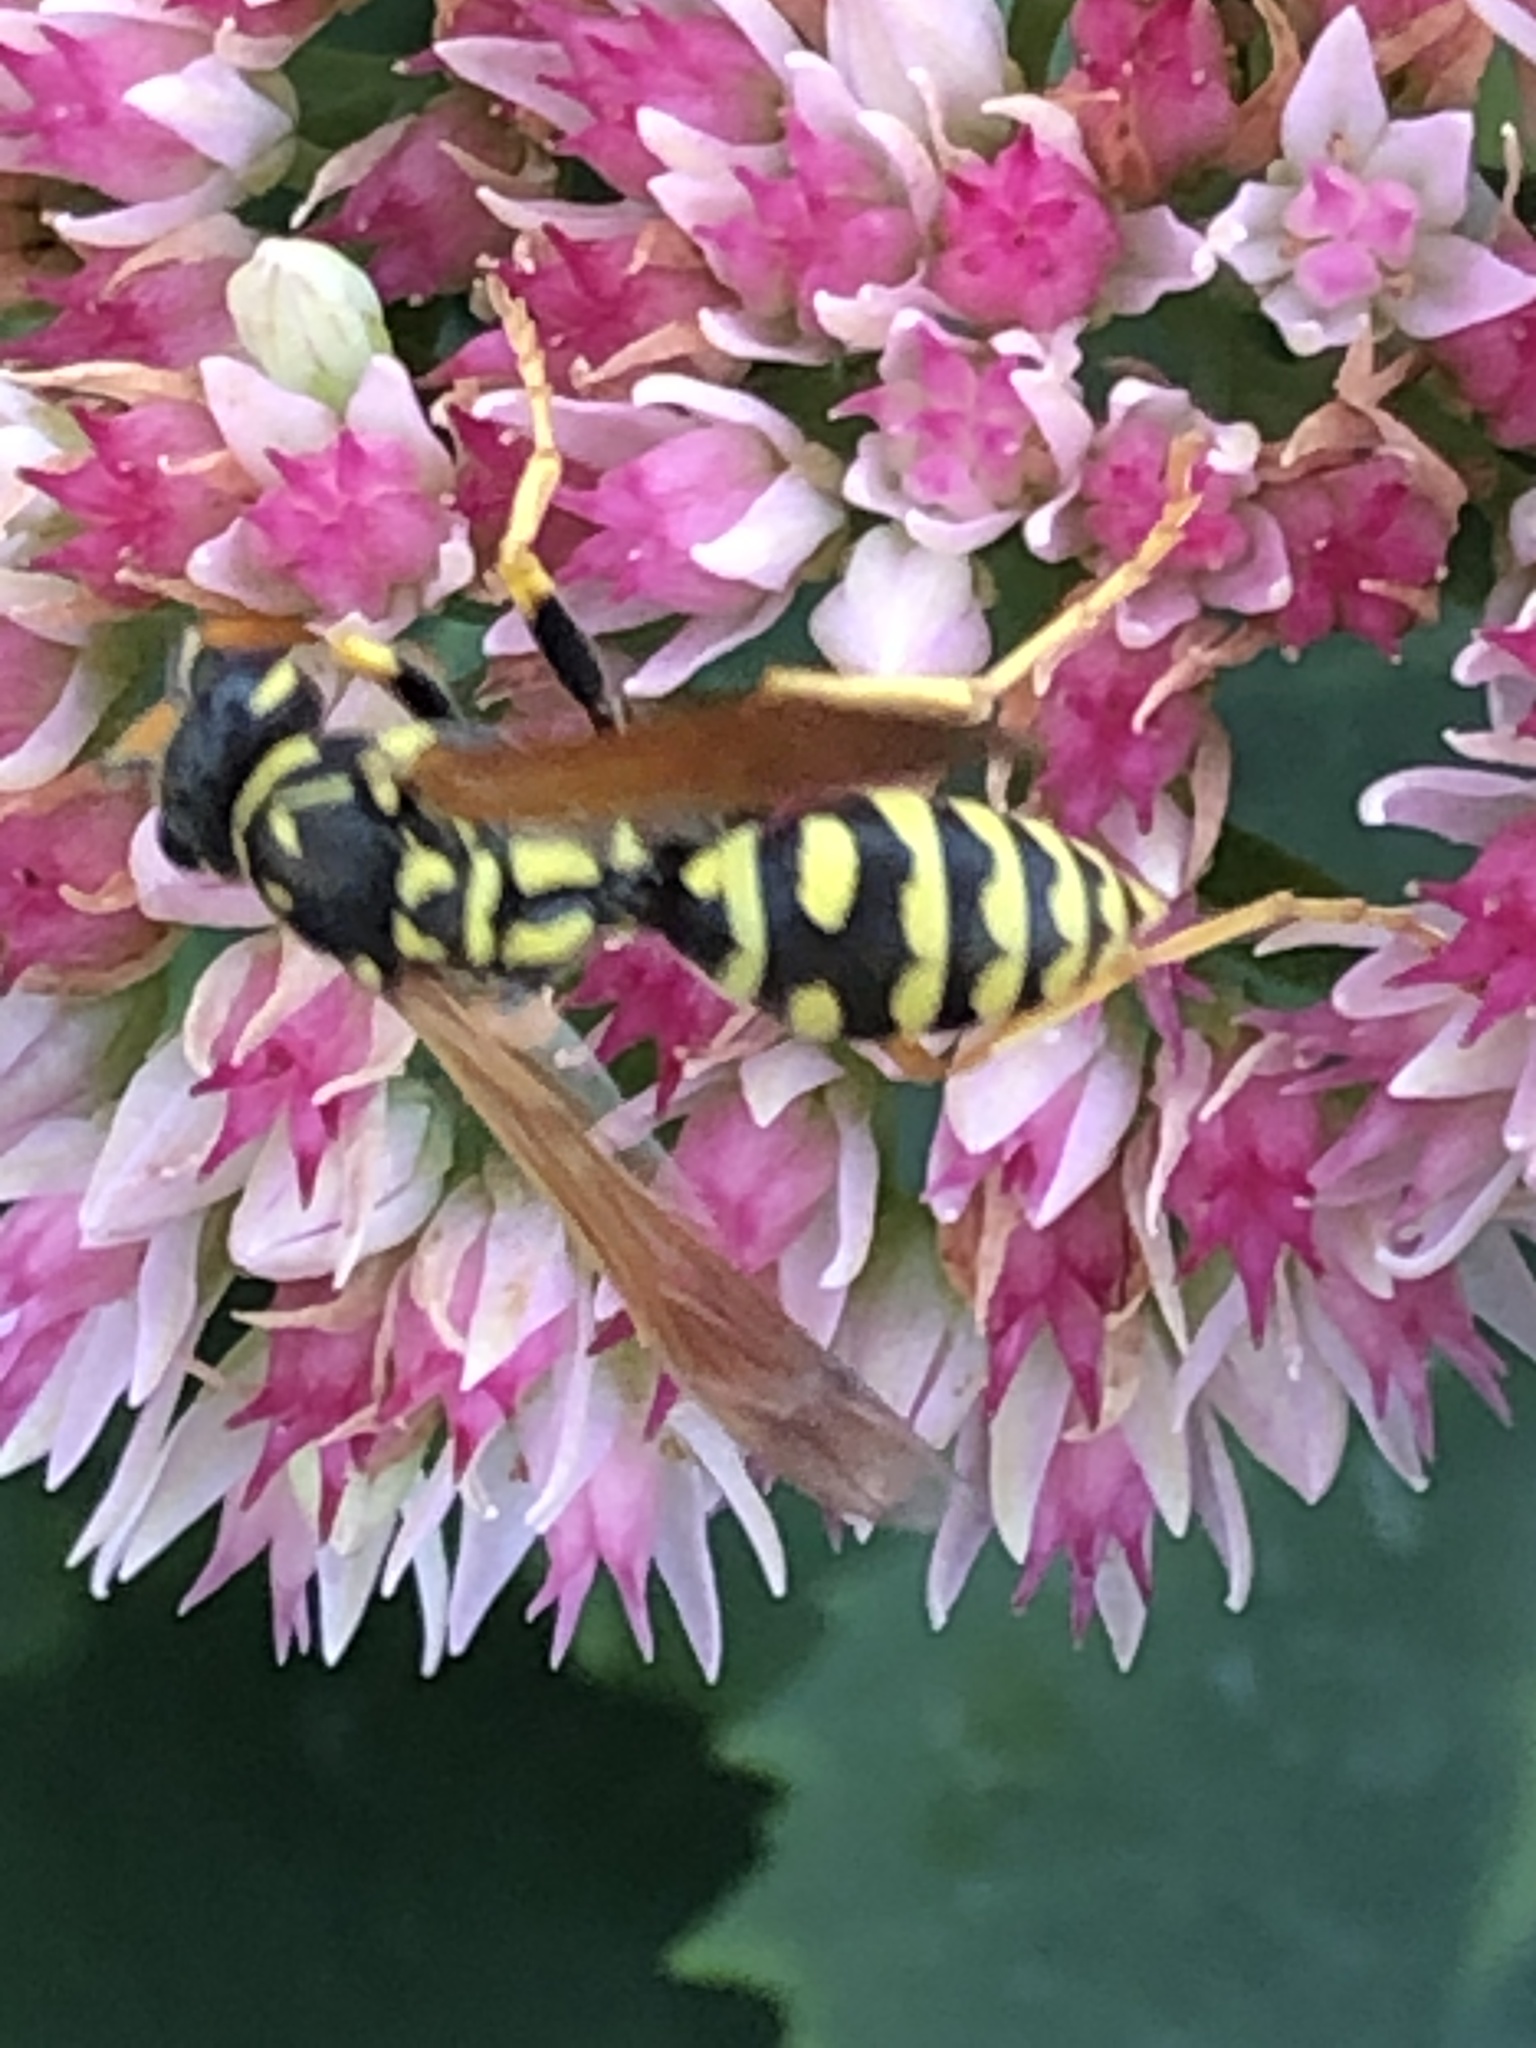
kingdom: Animalia
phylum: Arthropoda
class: Insecta
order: Hymenoptera
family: Eumenidae
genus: Polistes
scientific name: Polistes dominula
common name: Paper wasp
